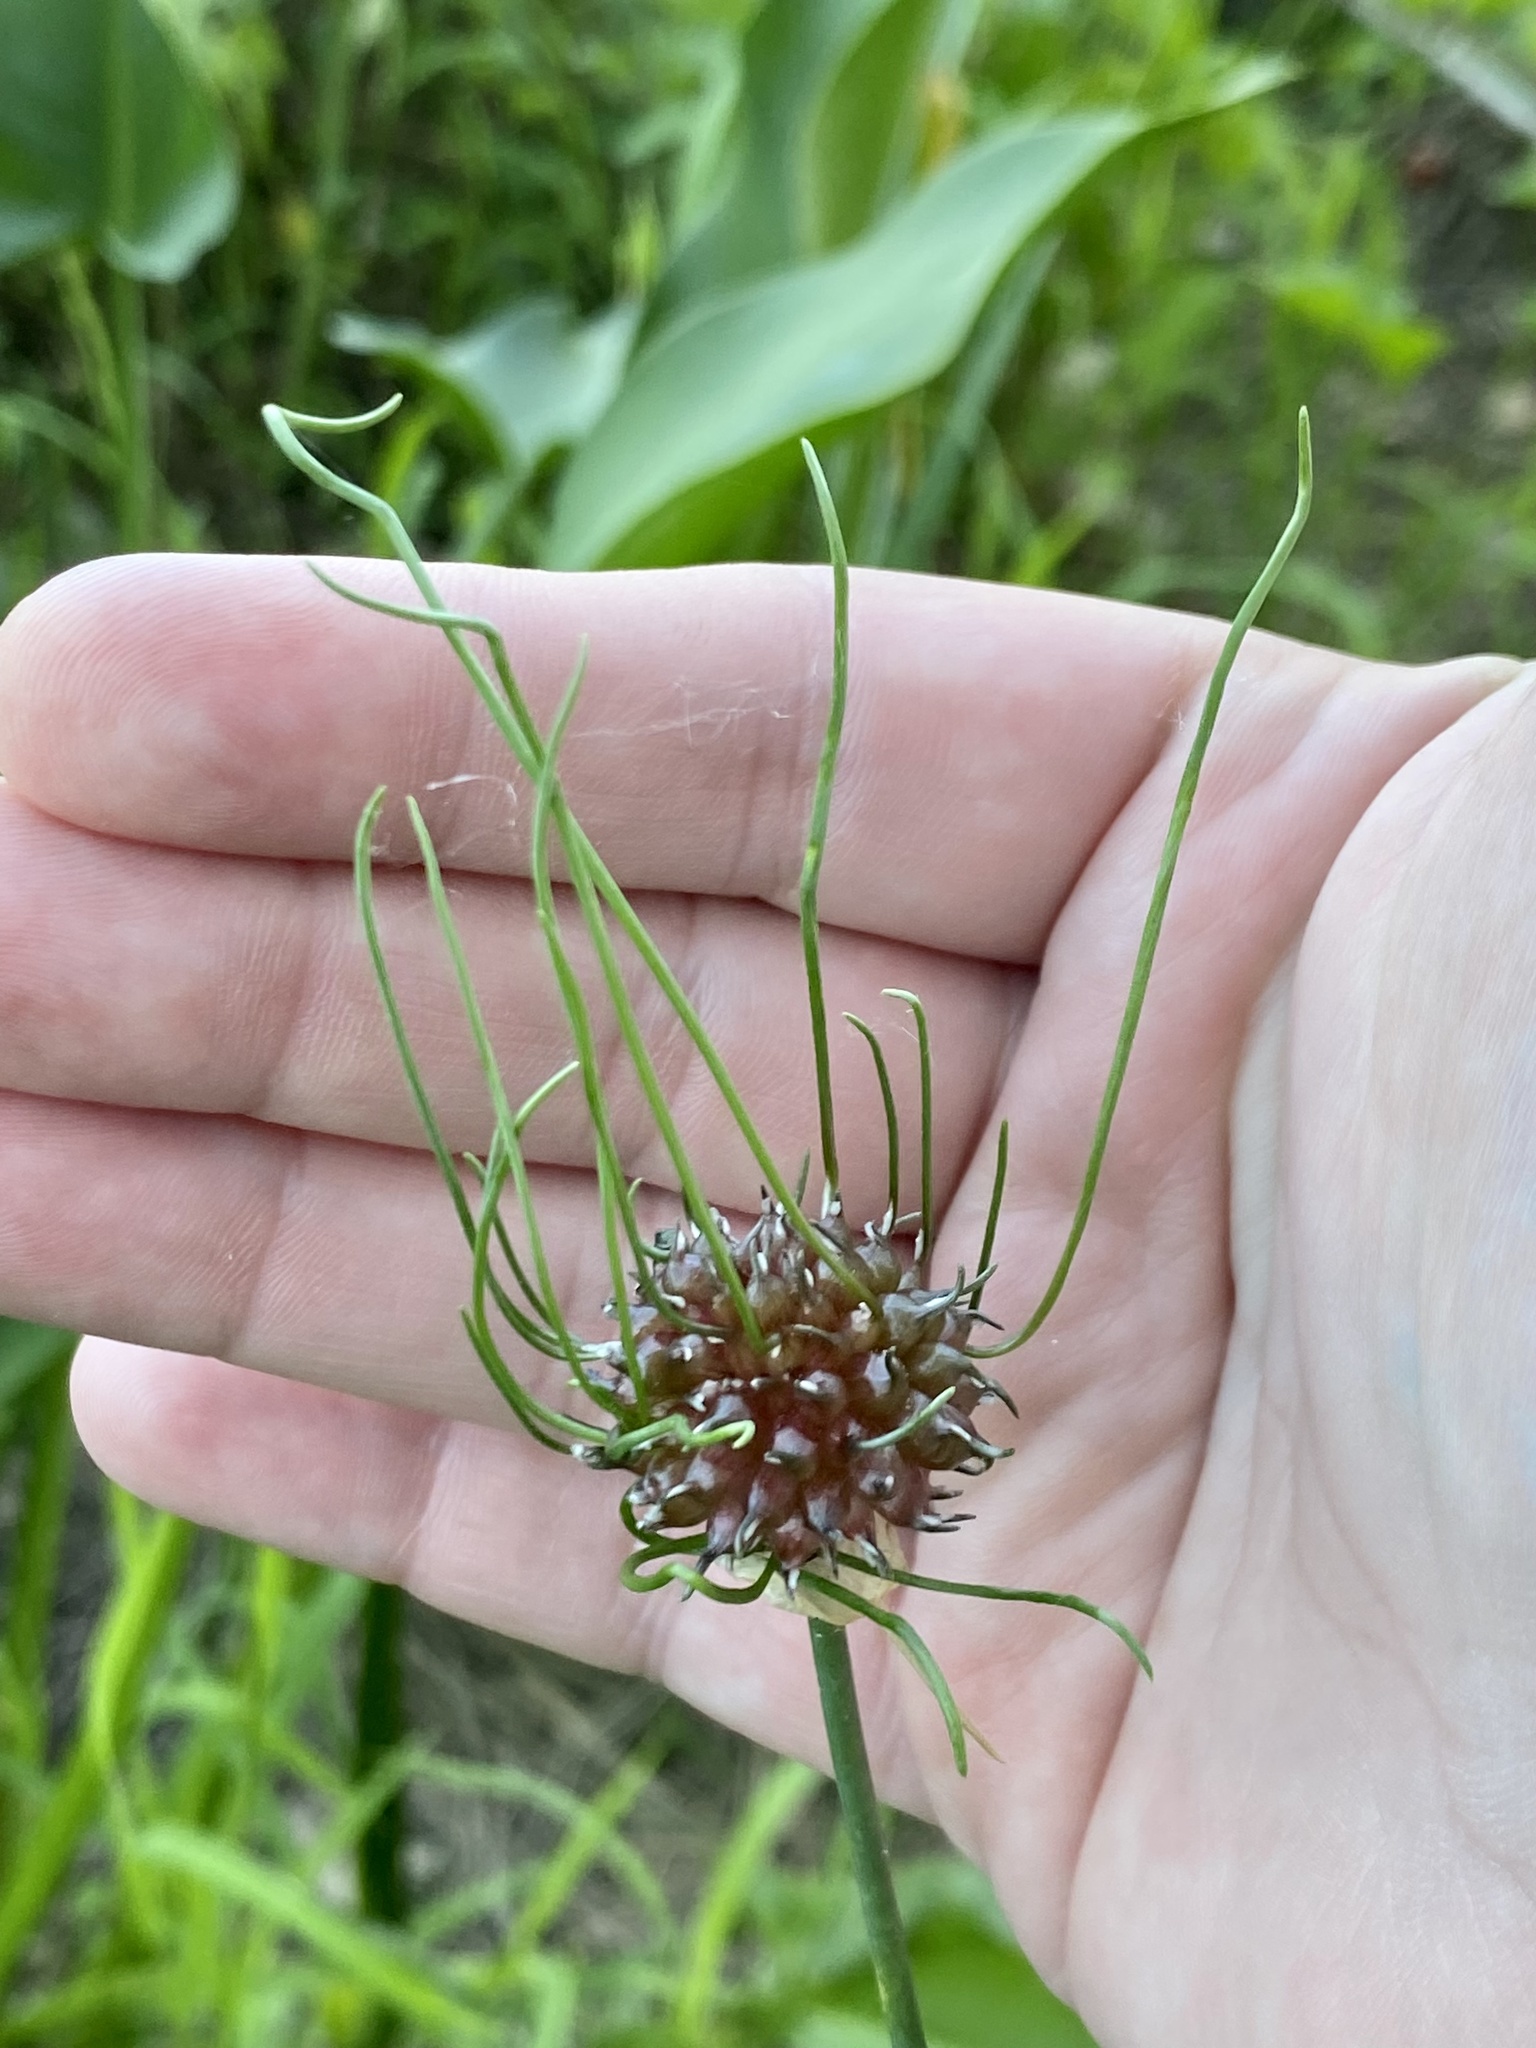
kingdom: Plantae
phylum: Tracheophyta
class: Liliopsida
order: Asparagales
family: Amaryllidaceae
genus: Allium
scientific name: Allium vineale
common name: Crow garlic
